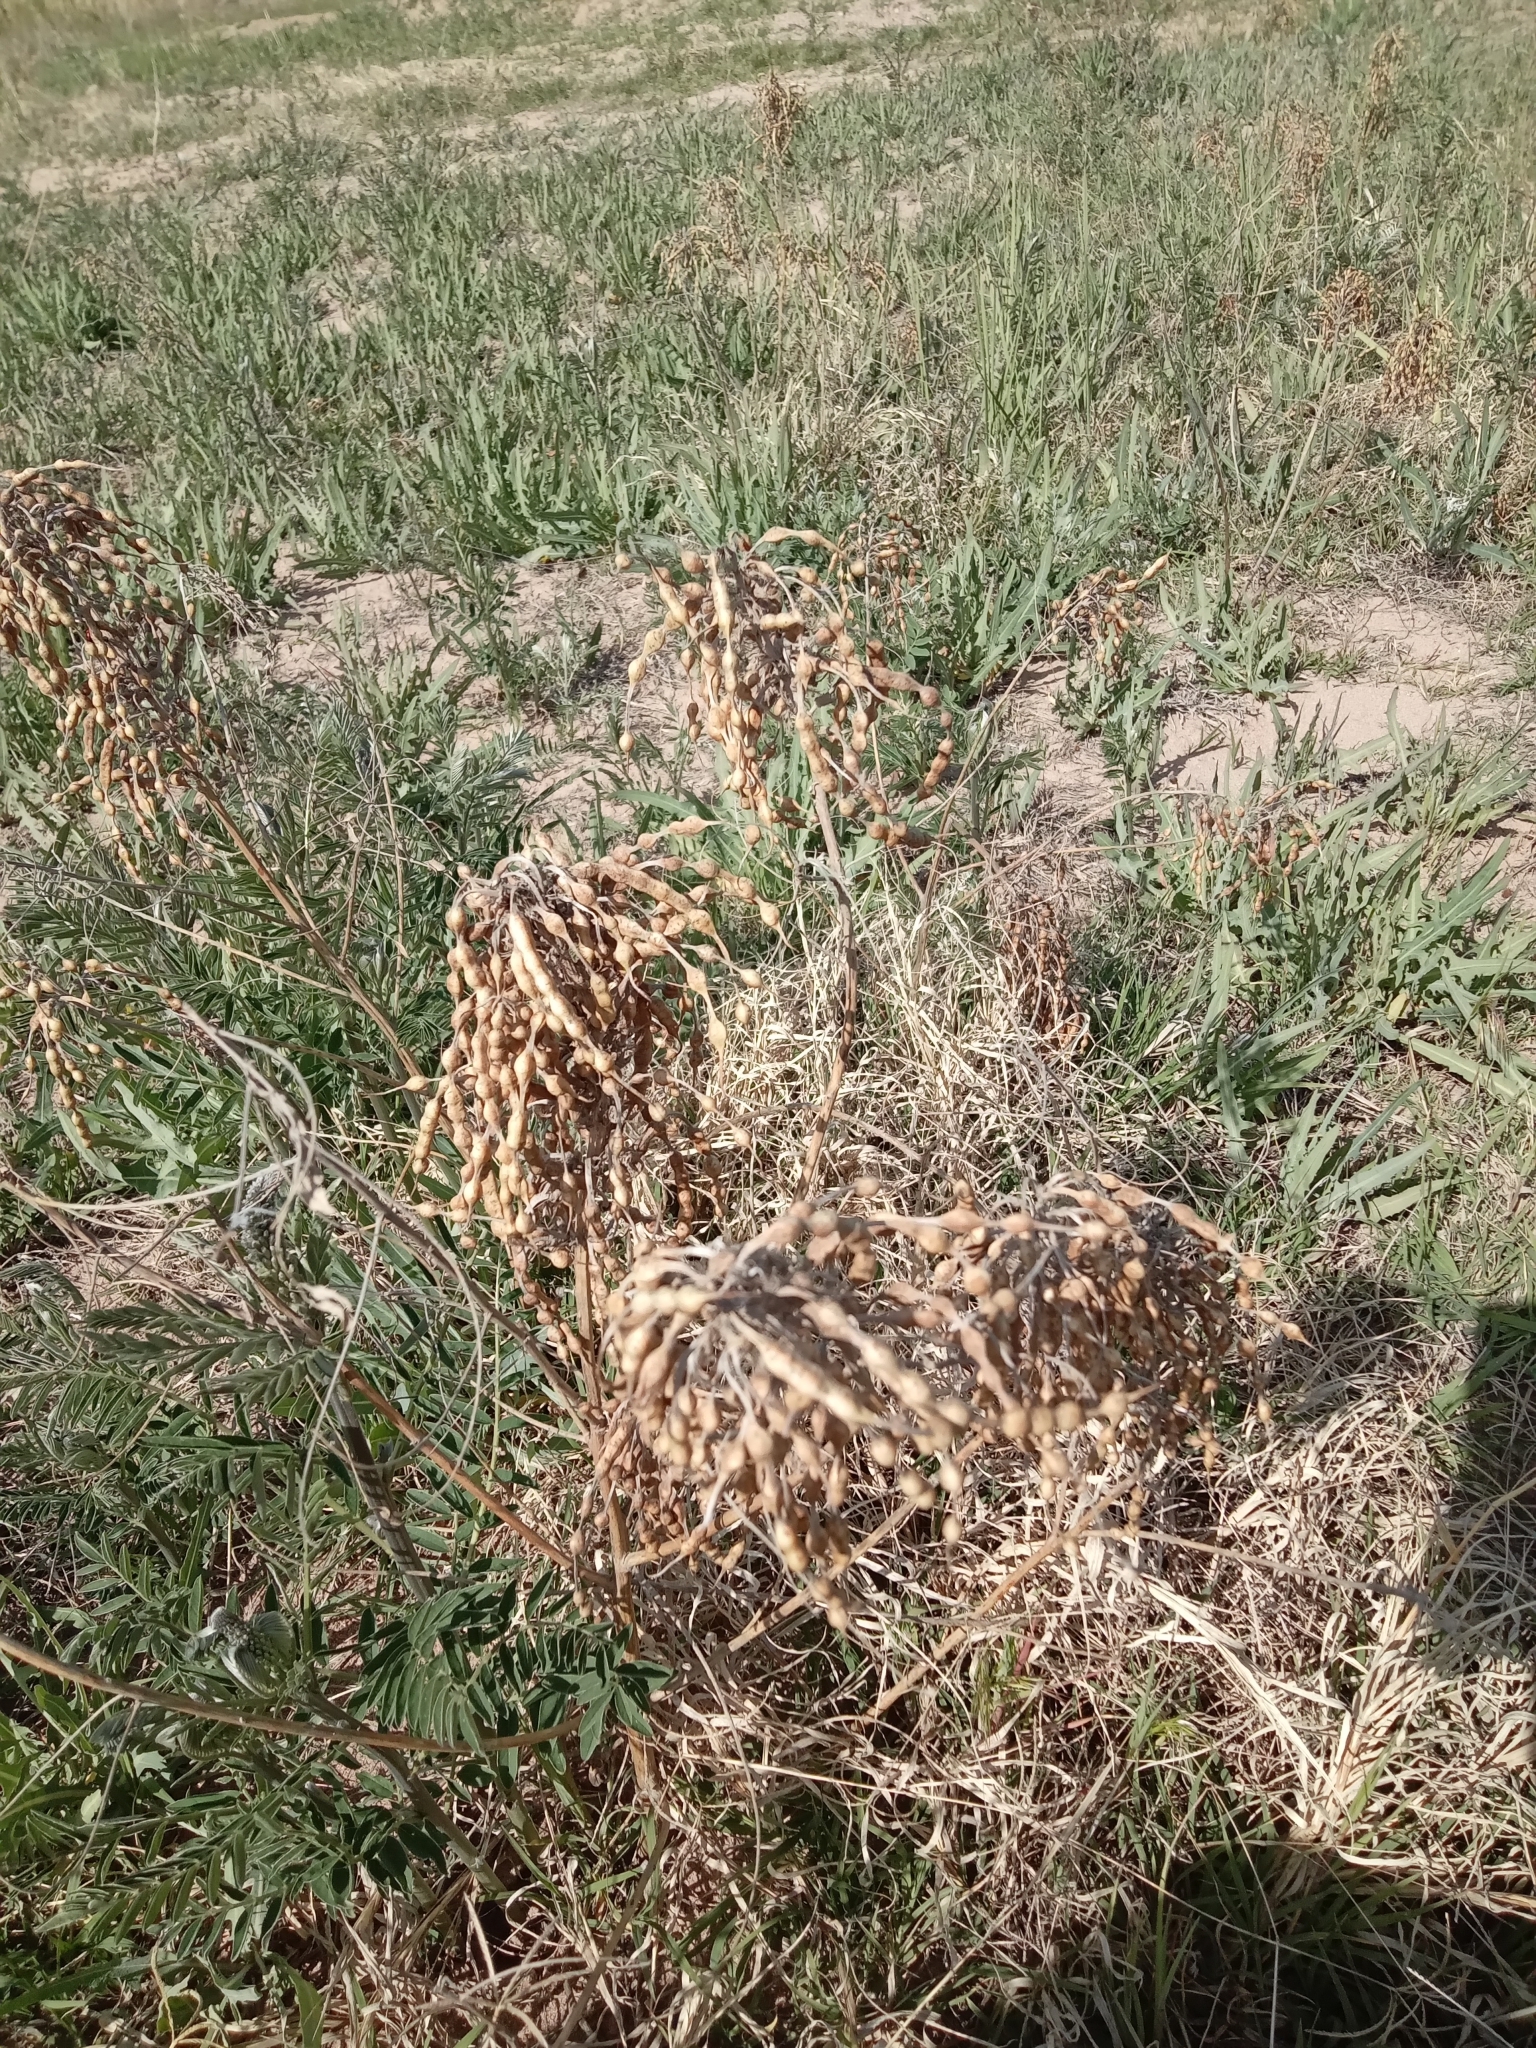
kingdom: Plantae
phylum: Tracheophyta
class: Magnoliopsida
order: Fabales
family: Fabaceae
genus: Sophora
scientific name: Sophora alopecuroides
